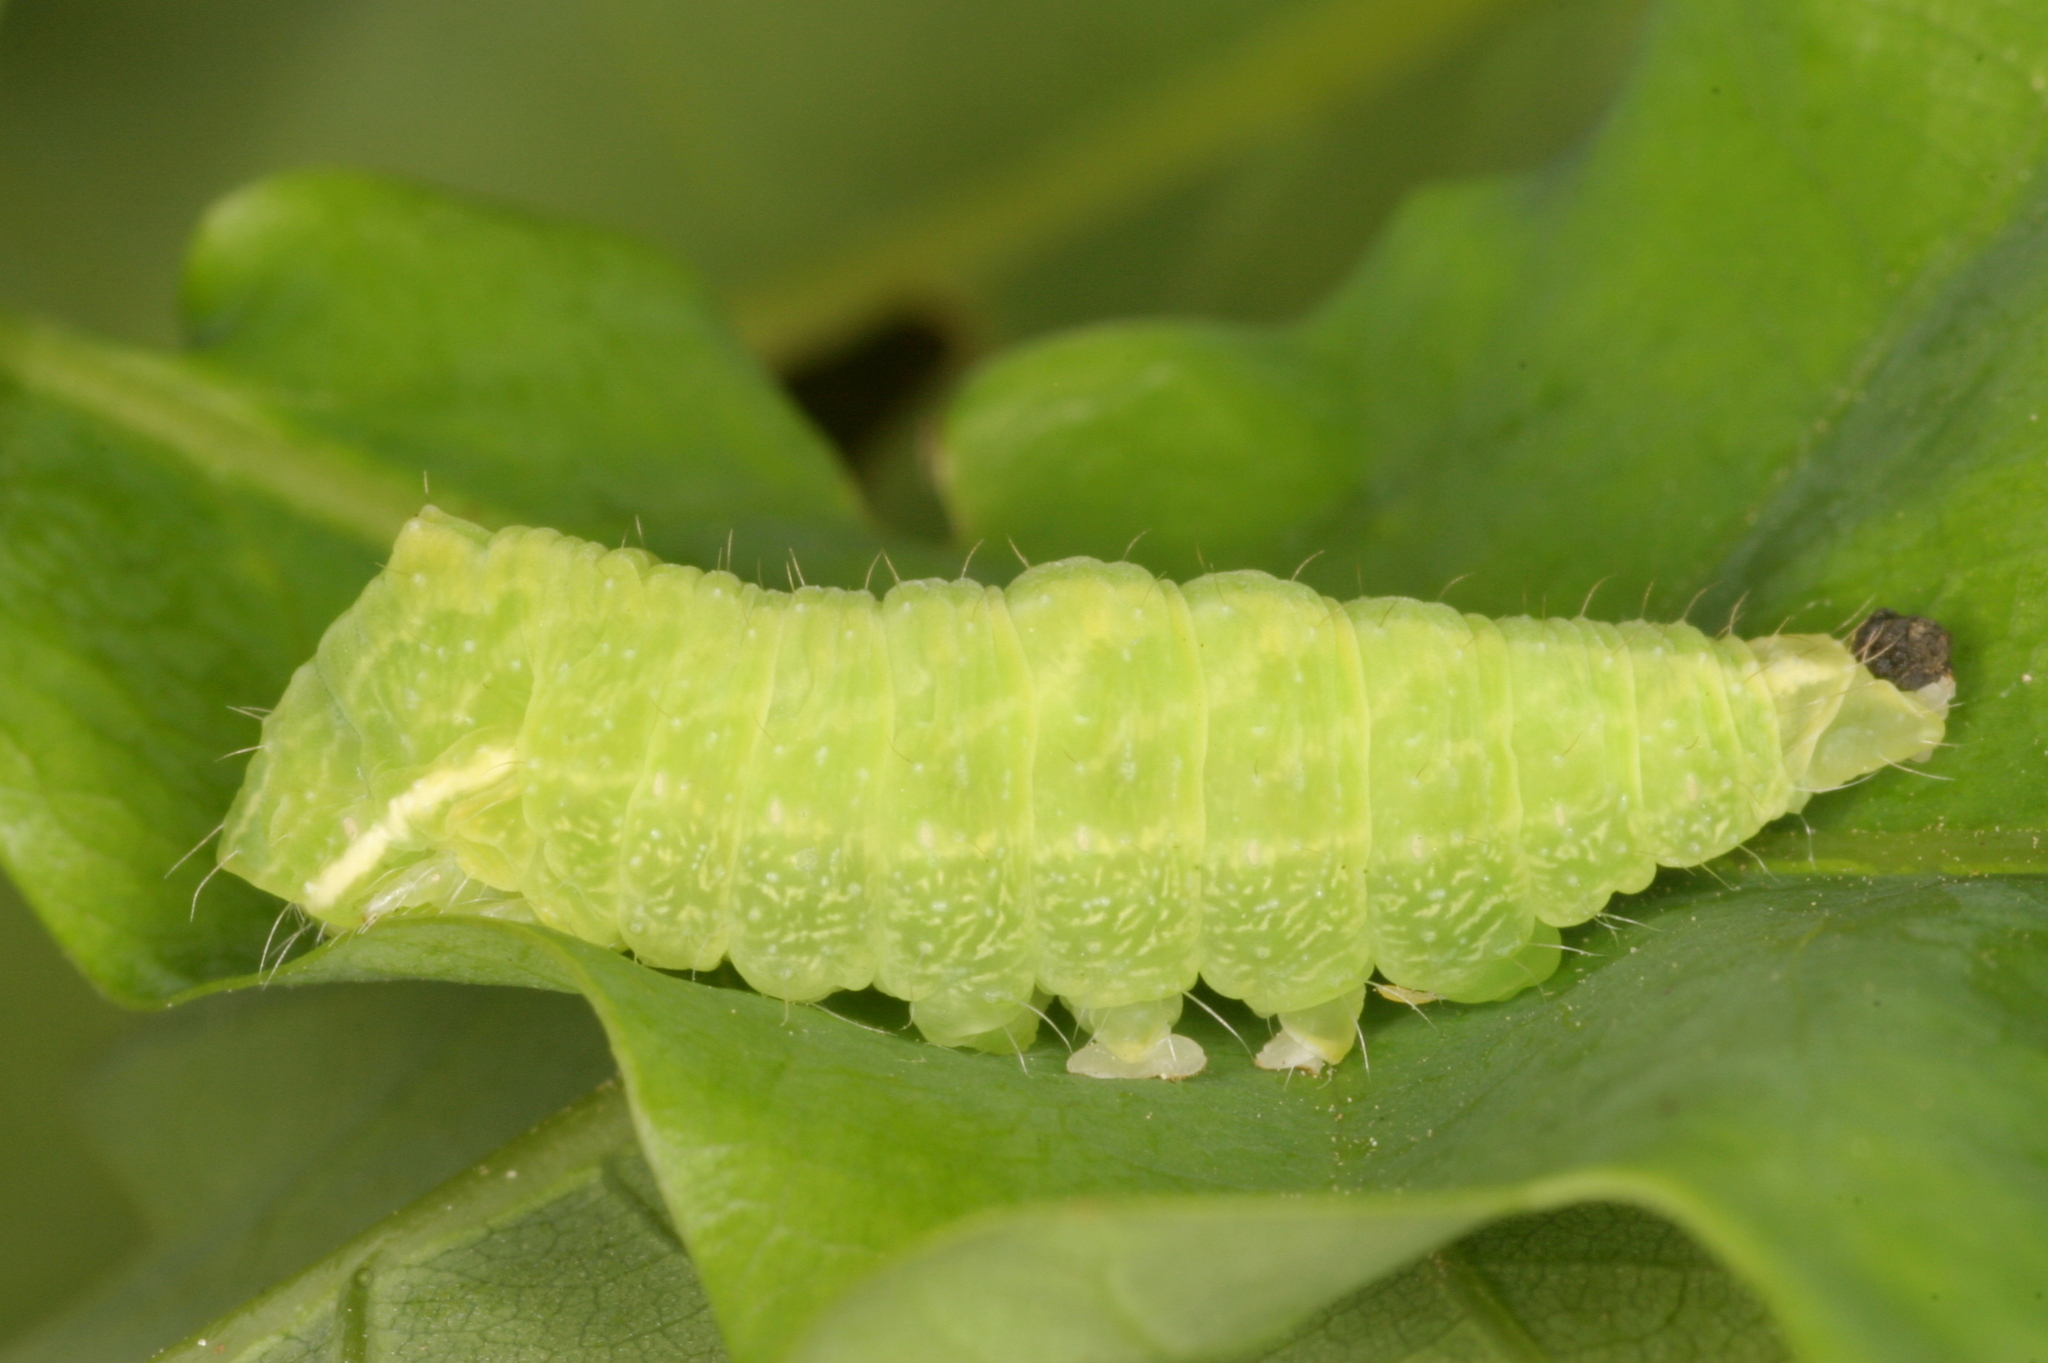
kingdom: Animalia
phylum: Arthropoda
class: Insecta
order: Lepidoptera
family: Nolidae
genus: Bena
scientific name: Bena bicolorana
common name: Scarce silver-lines
